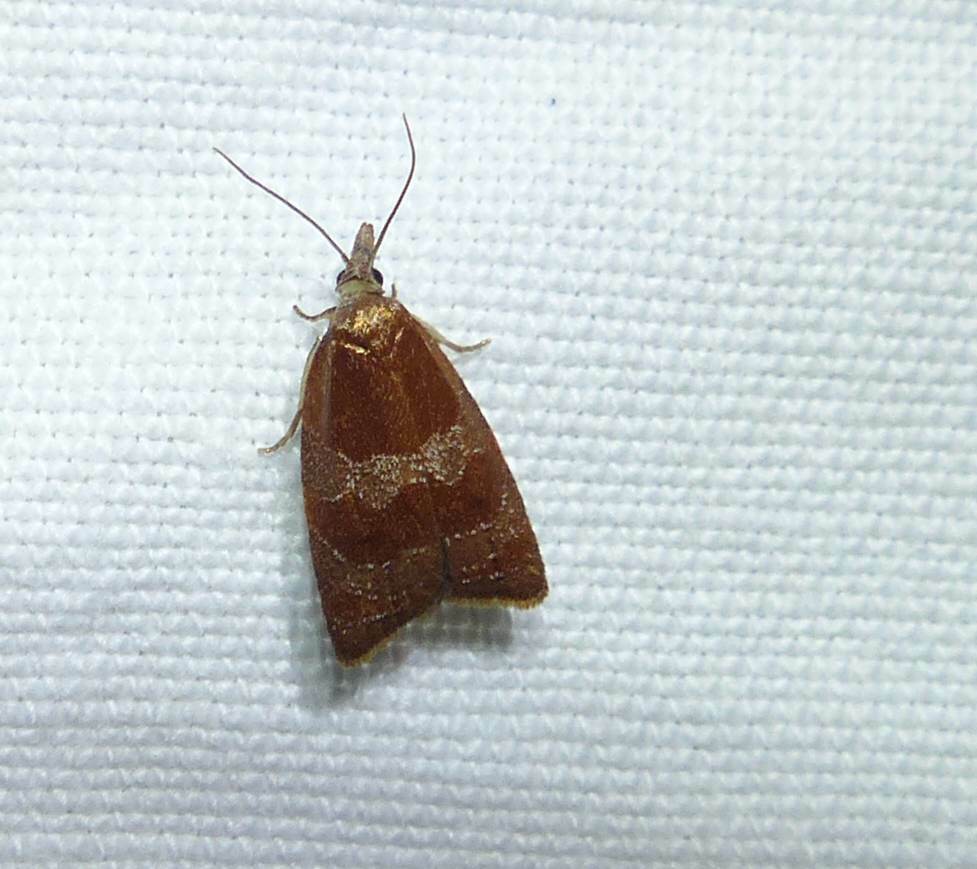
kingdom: Animalia
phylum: Arthropoda
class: Insecta
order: Lepidoptera
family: Tortricidae
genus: Cenopis
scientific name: Cenopis diluticostana
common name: Spring dead-leaf roller moth
